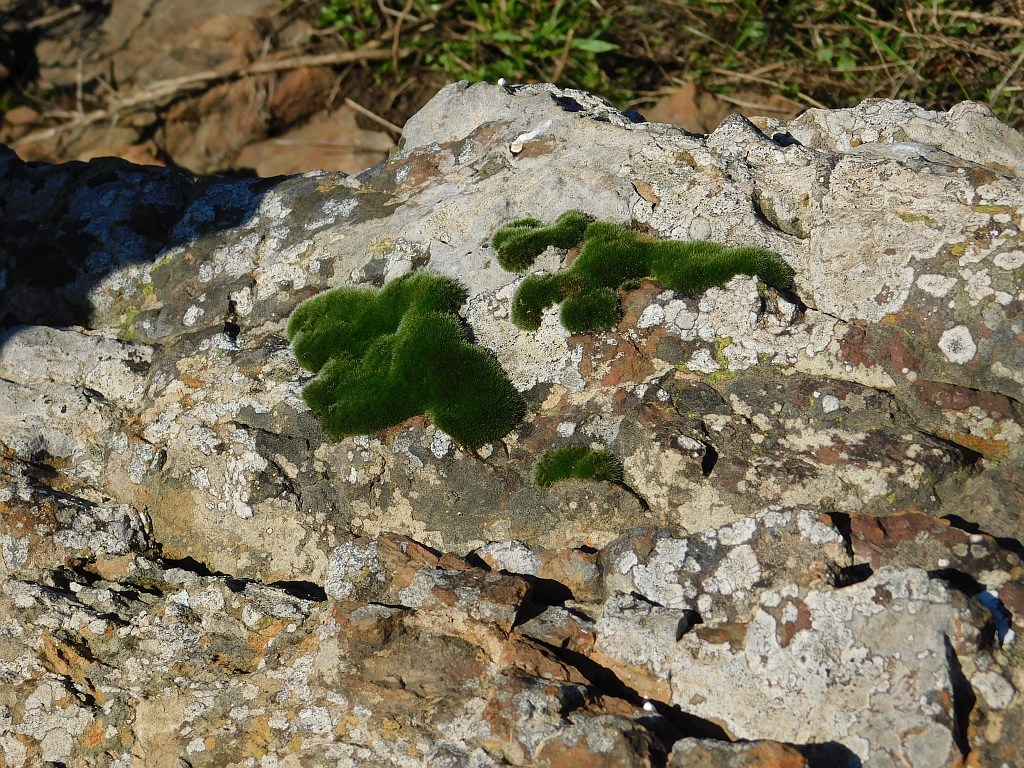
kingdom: Plantae
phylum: Bryophyta
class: Bryopsida
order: Grimmiales
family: Grimmiaceae
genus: Grimmia
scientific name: Grimmia pulvinata
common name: Grey-cushioned grimmia
